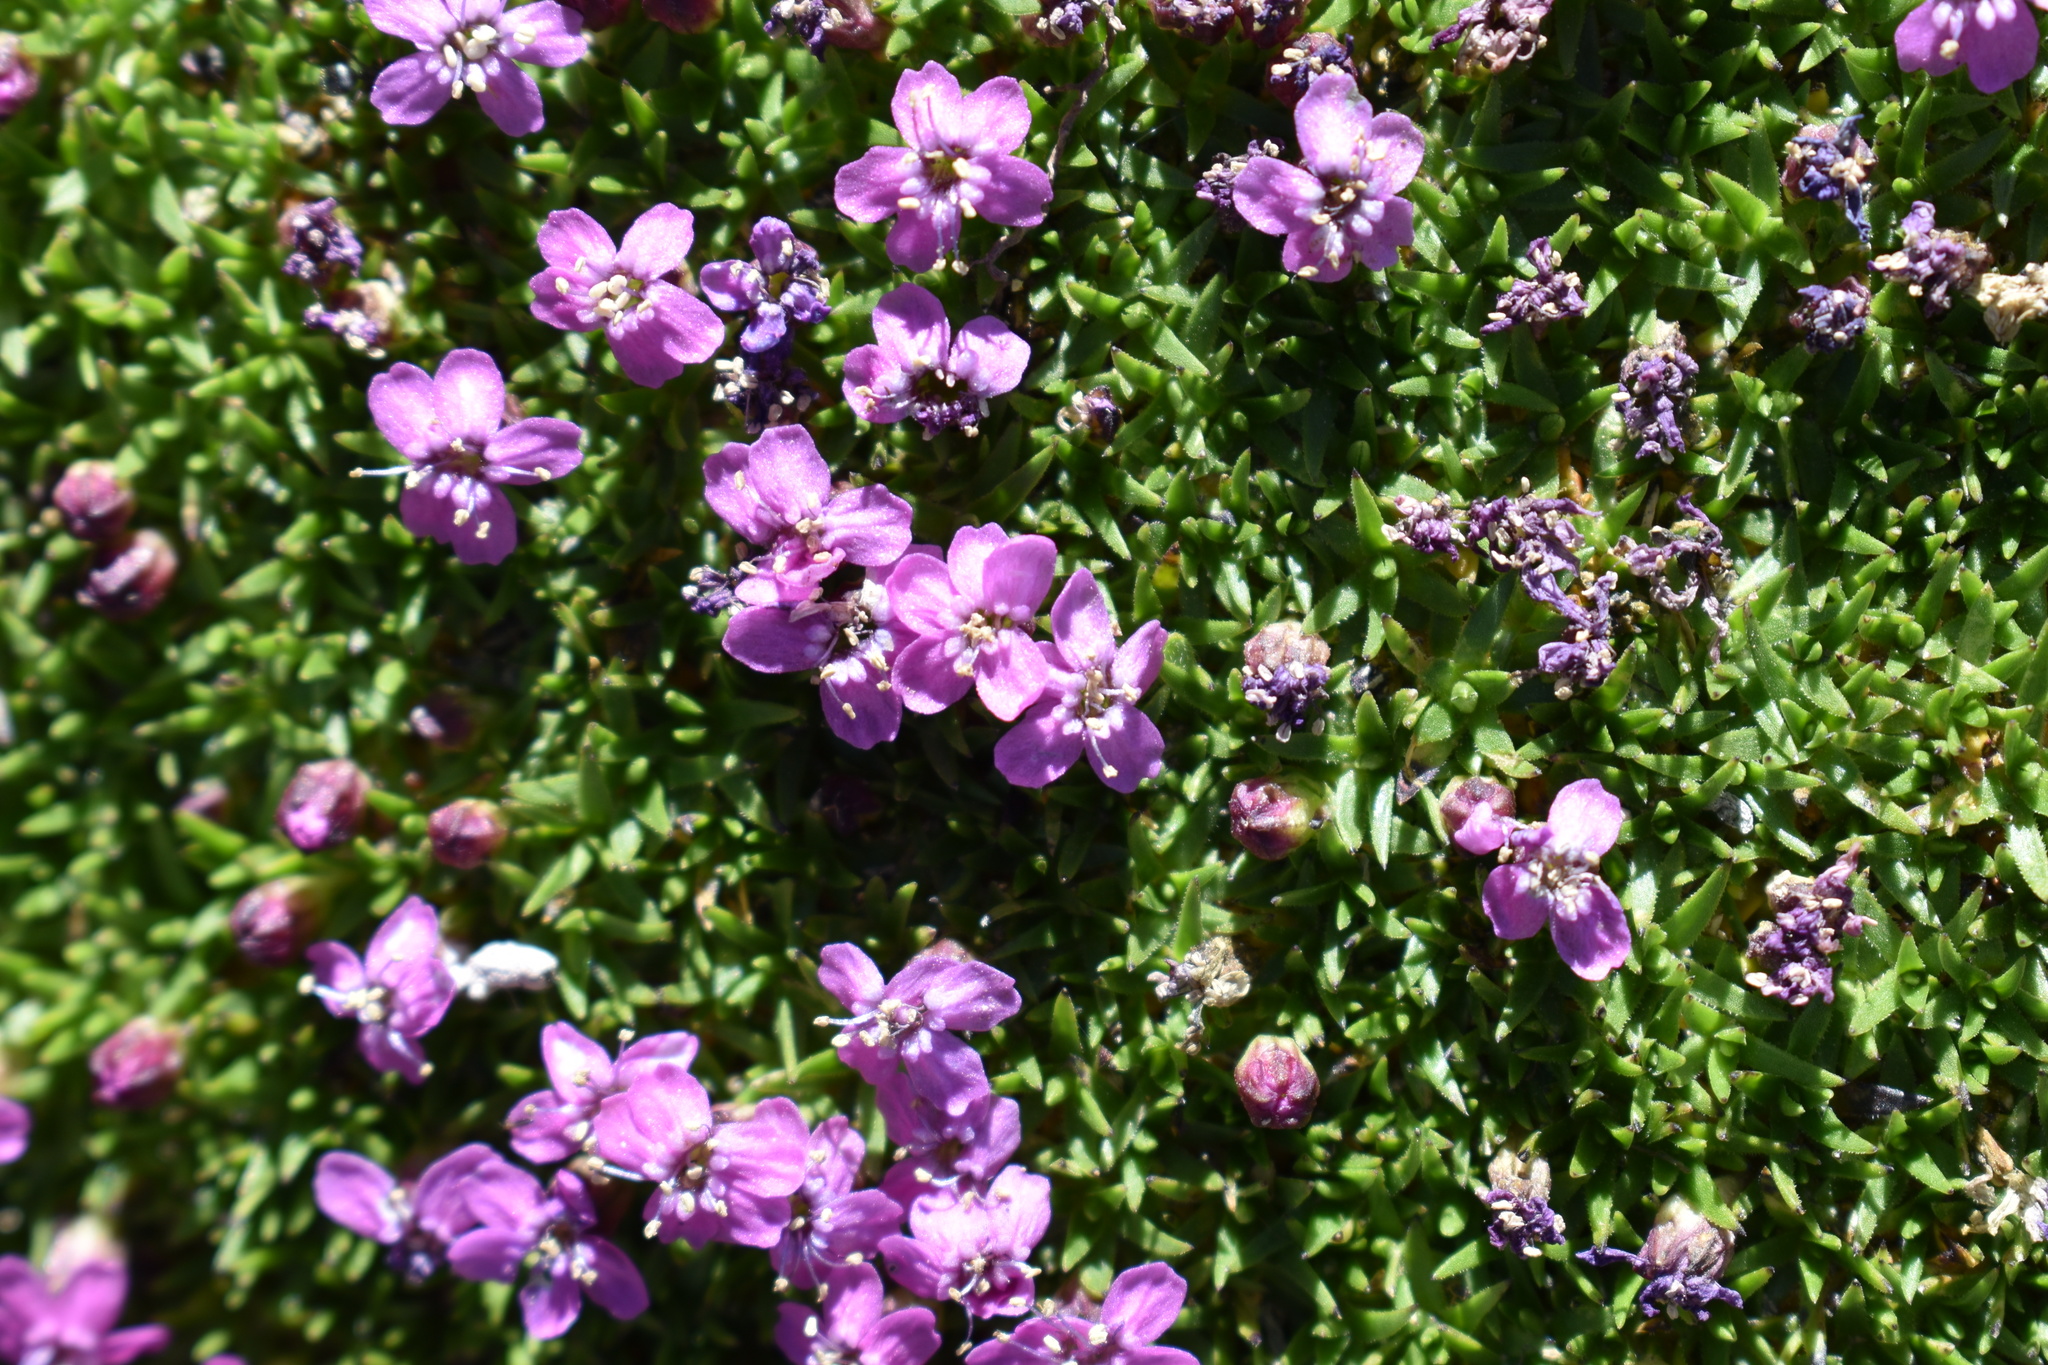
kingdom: Plantae
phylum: Tracheophyta
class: Magnoliopsida
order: Caryophyllales
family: Caryophyllaceae
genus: Silene
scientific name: Silene acaulis
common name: Moss campion
